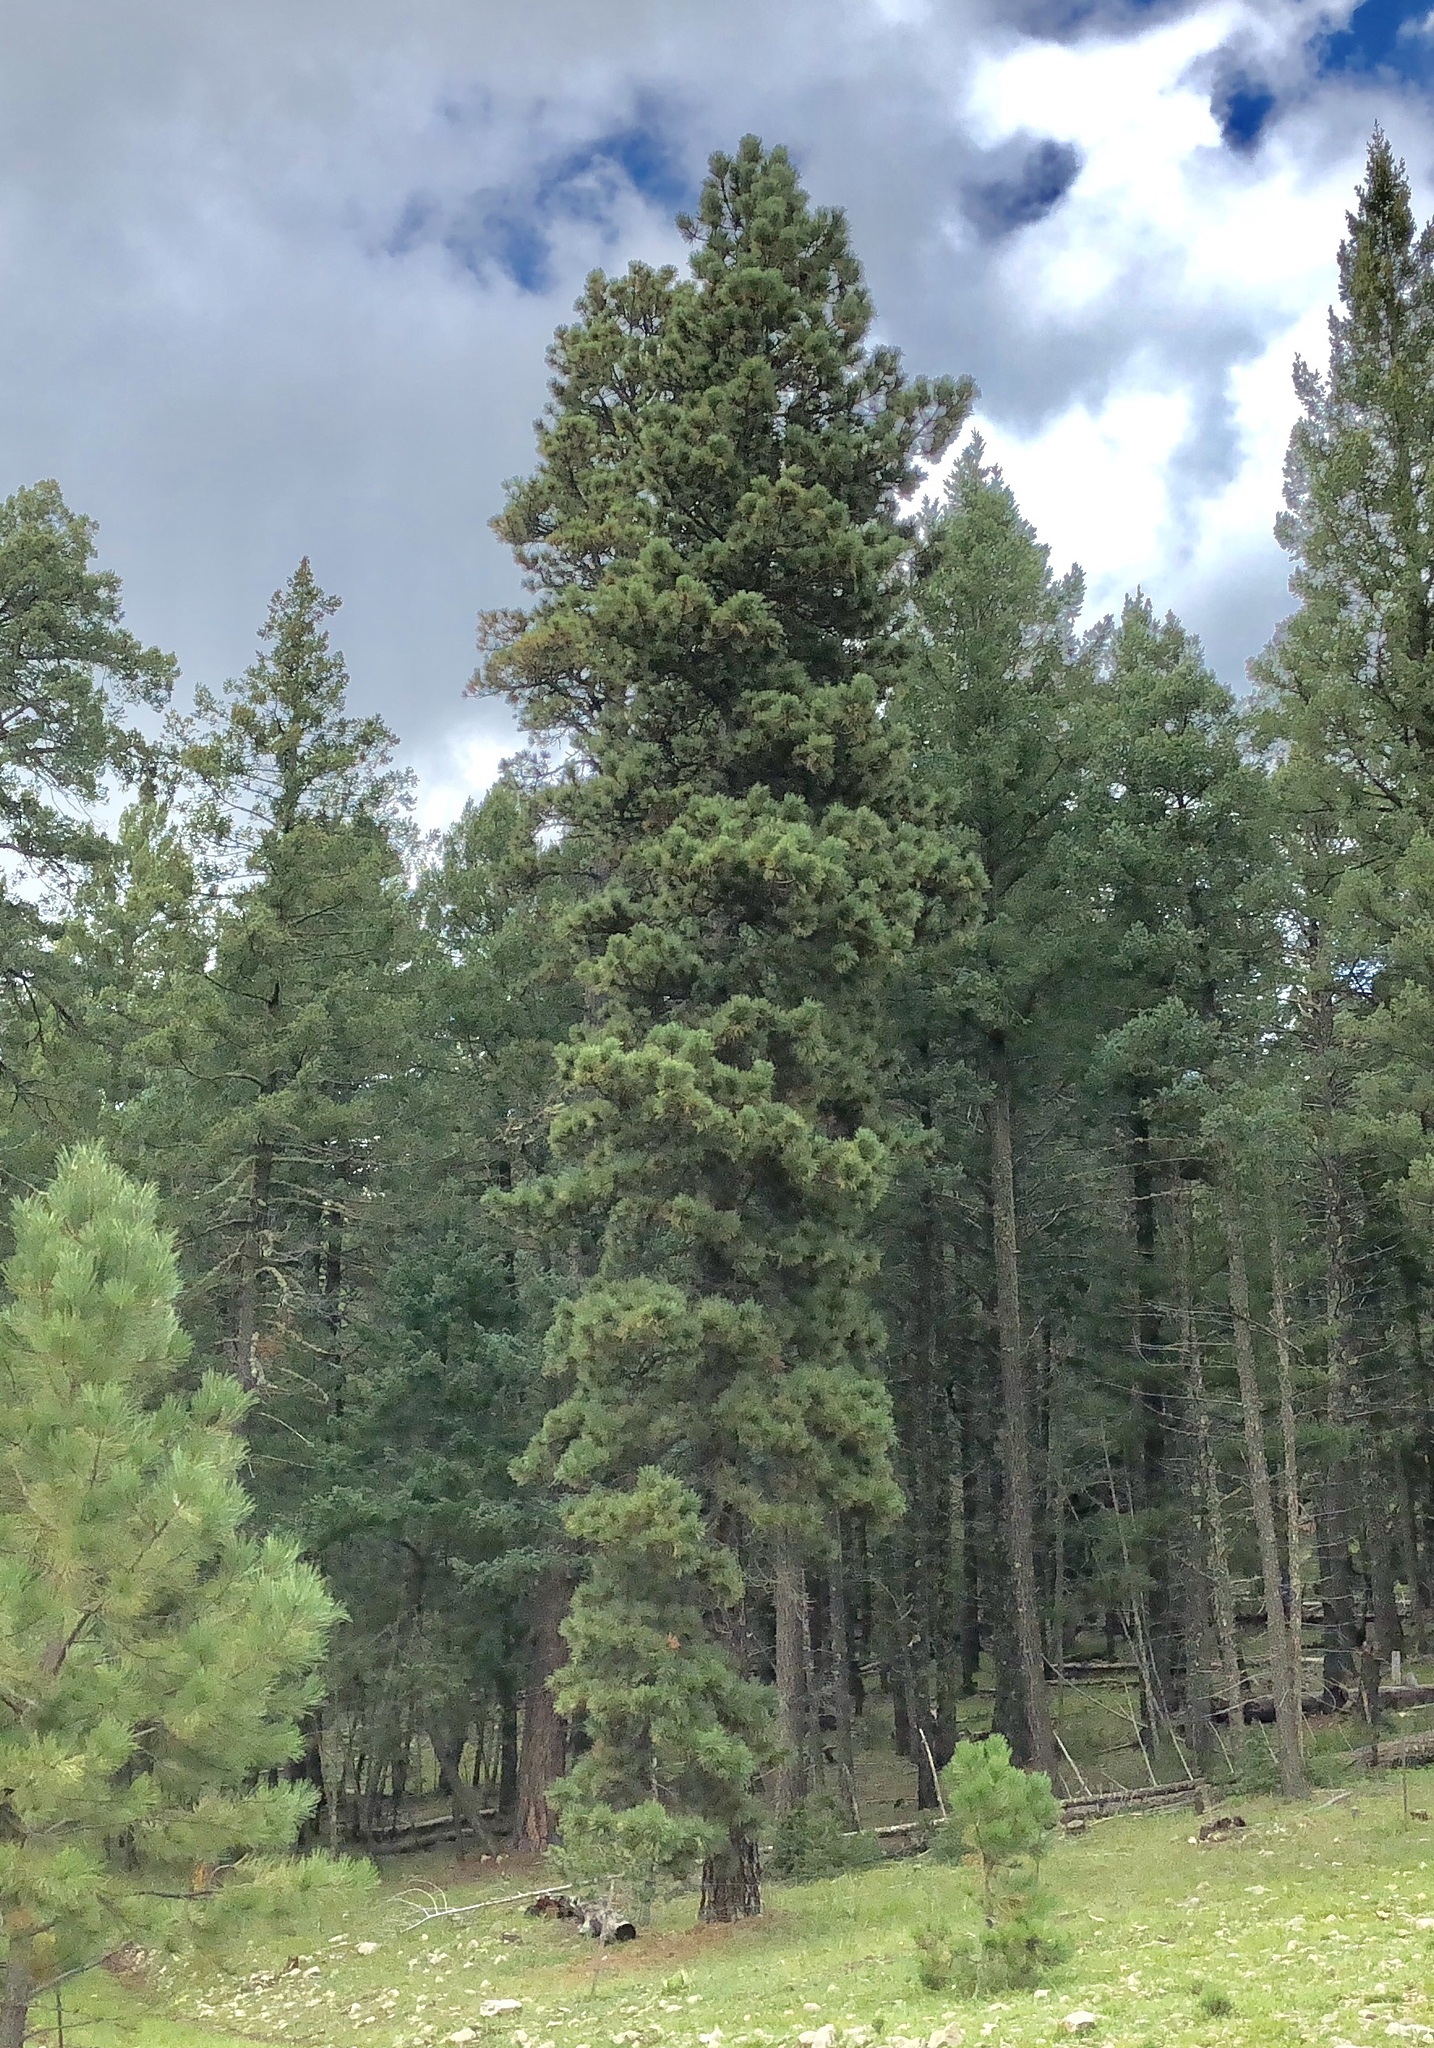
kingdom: Plantae
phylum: Tracheophyta
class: Pinopsida
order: Pinales
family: Pinaceae
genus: Pinus
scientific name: Pinus ponderosa
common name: Western yellow-pine
